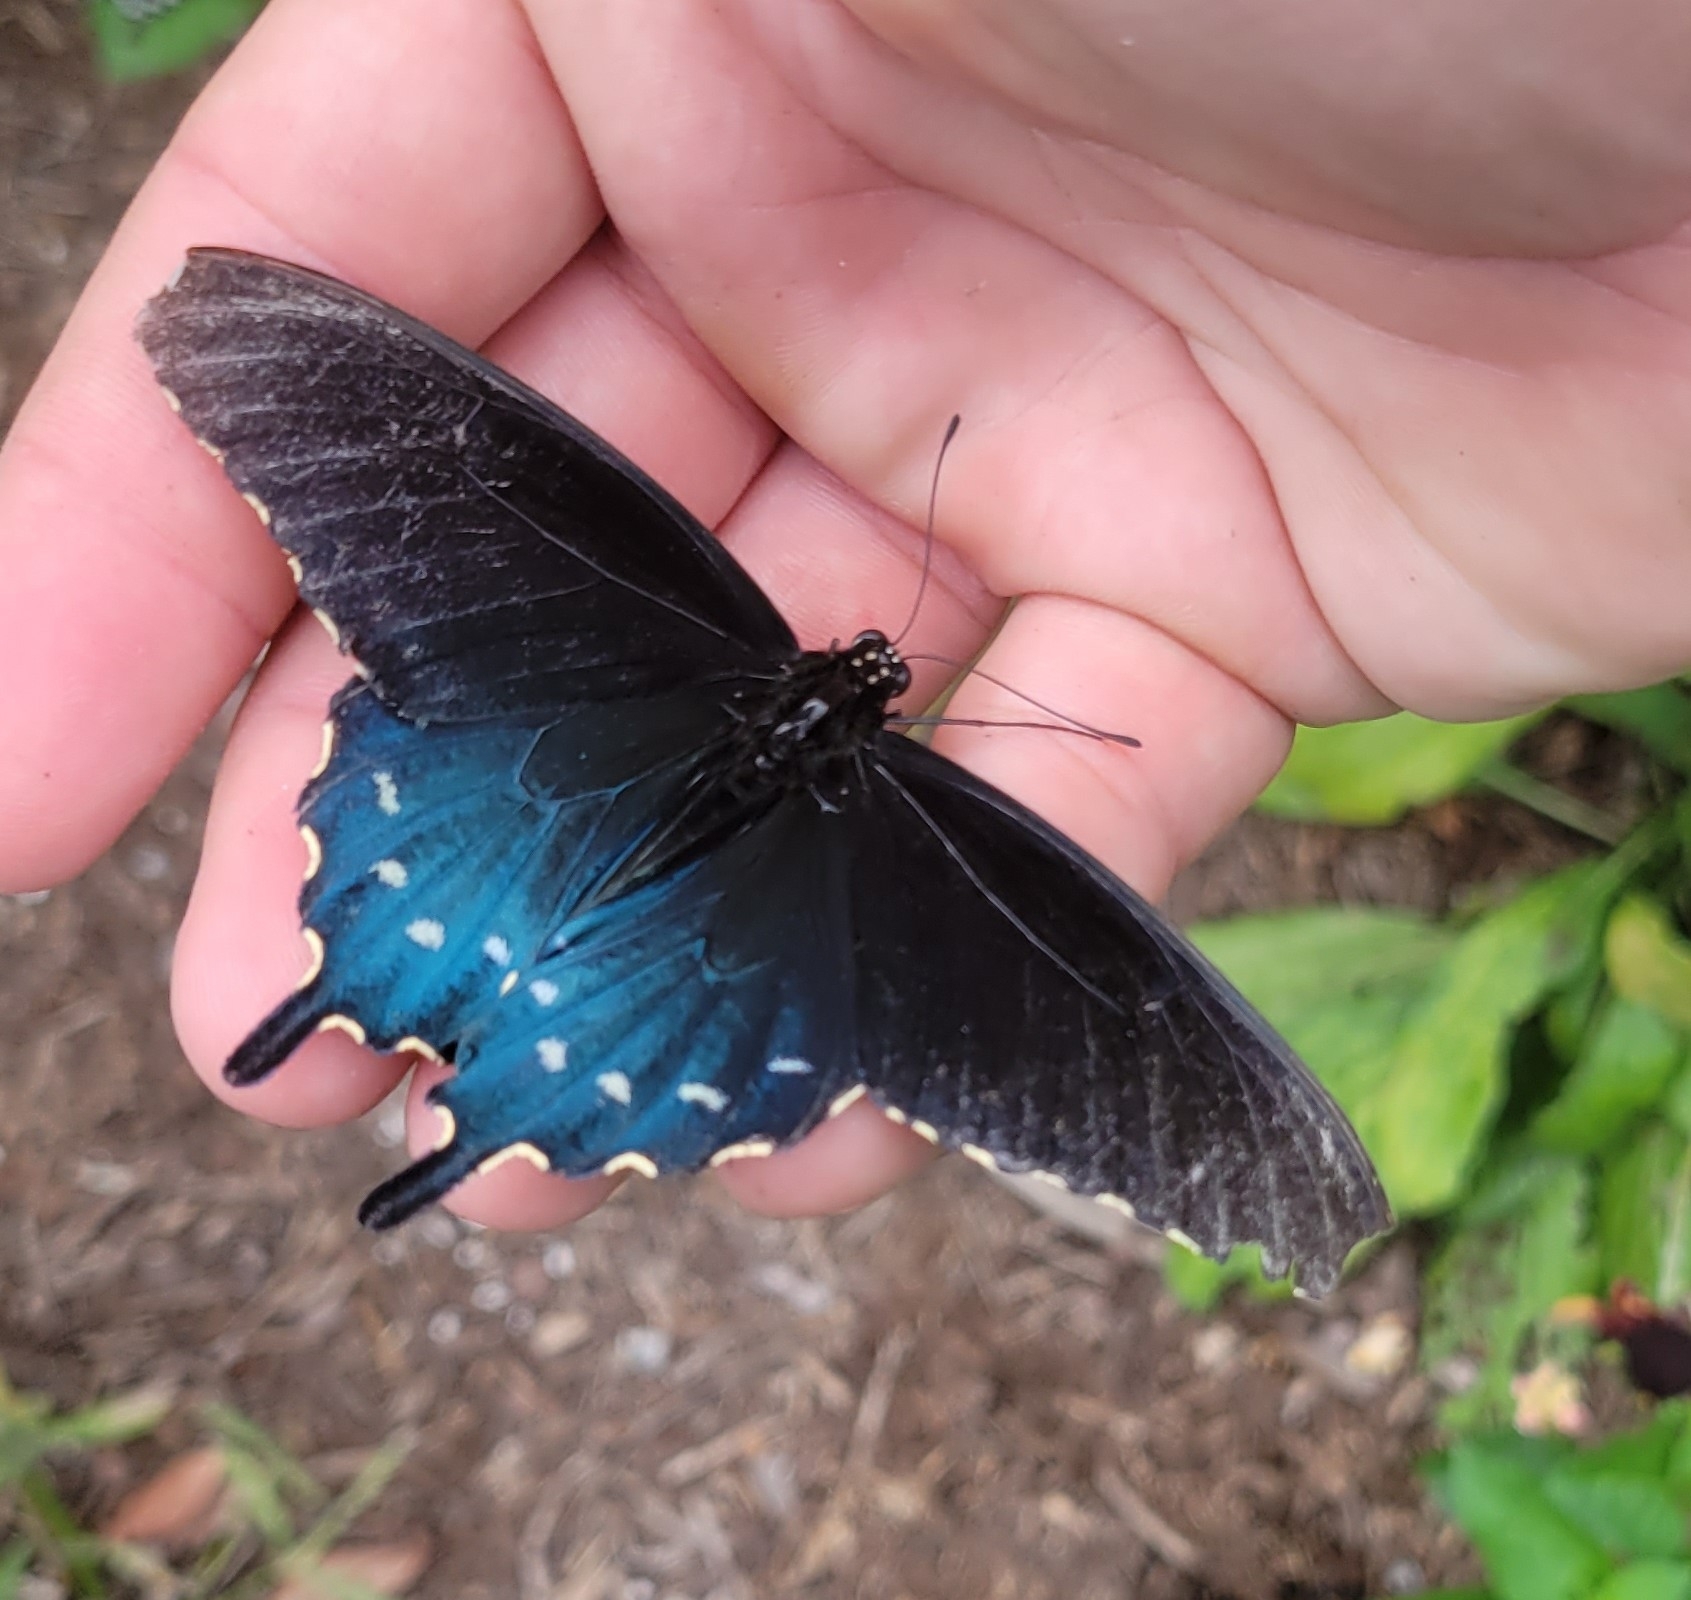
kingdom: Animalia
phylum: Arthropoda
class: Insecta
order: Lepidoptera
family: Papilionidae
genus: Battus
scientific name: Battus philenor
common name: Pipevine swallowtail
